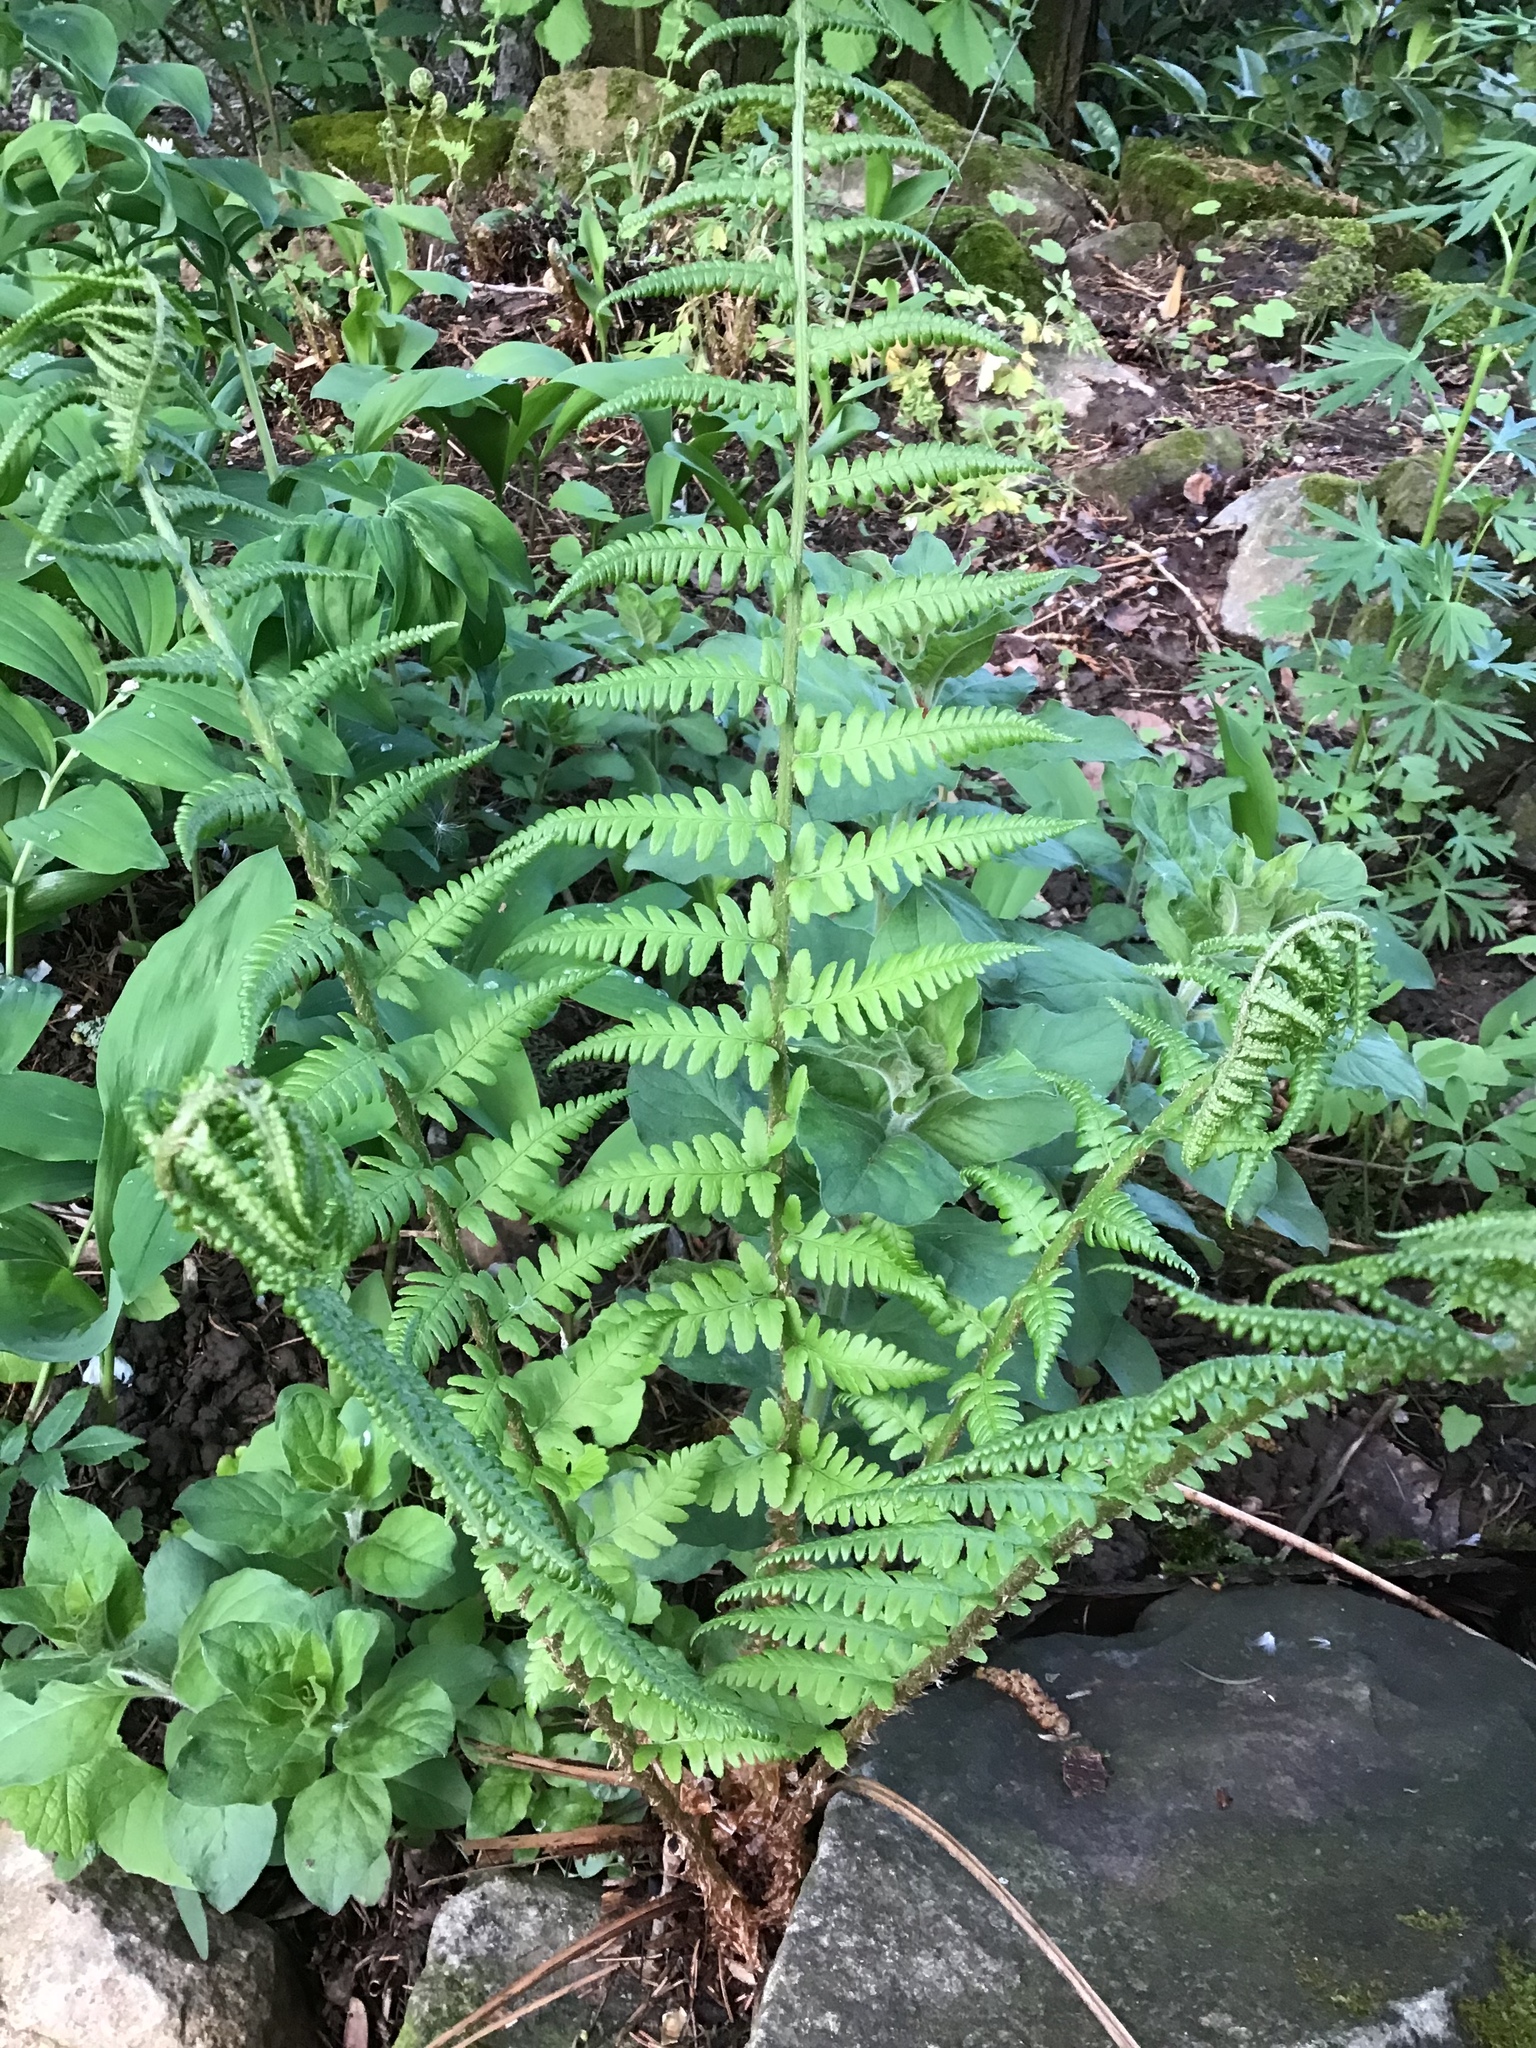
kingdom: Plantae
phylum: Tracheophyta
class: Polypodiopsida
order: Polypodiales
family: Dryopteridaceae
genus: Dryopteris
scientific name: Dryopteris filix-mas
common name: Male fern
